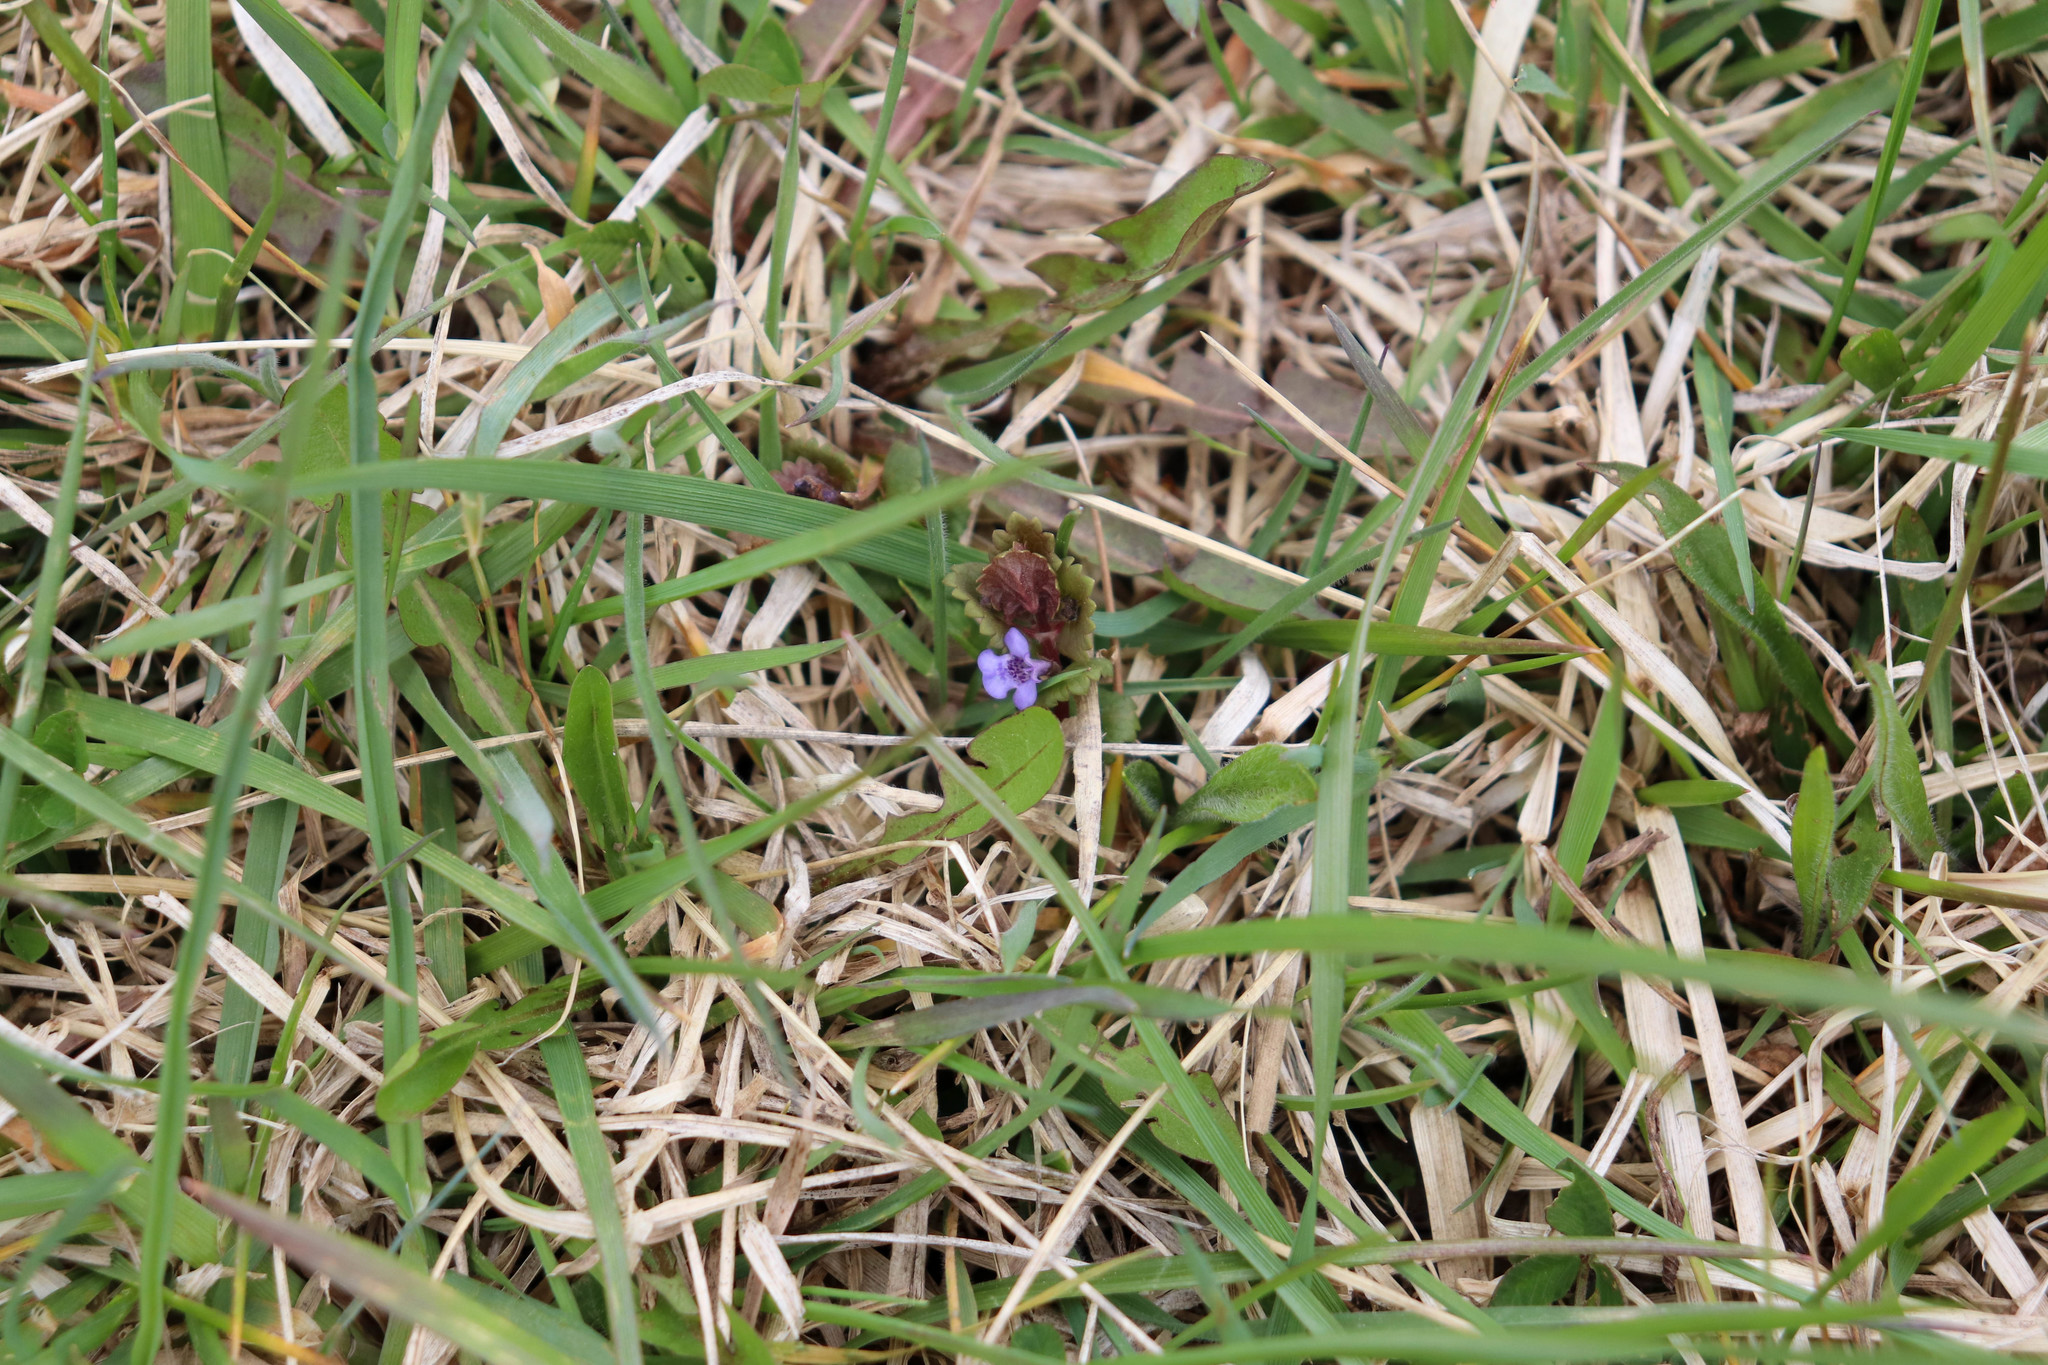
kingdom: Plantae
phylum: Tracheophyta
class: Magnoliopsida
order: Lamiales
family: Lamiaceae
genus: Glechoma
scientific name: Glechoma hederacea
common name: Ground ivy
